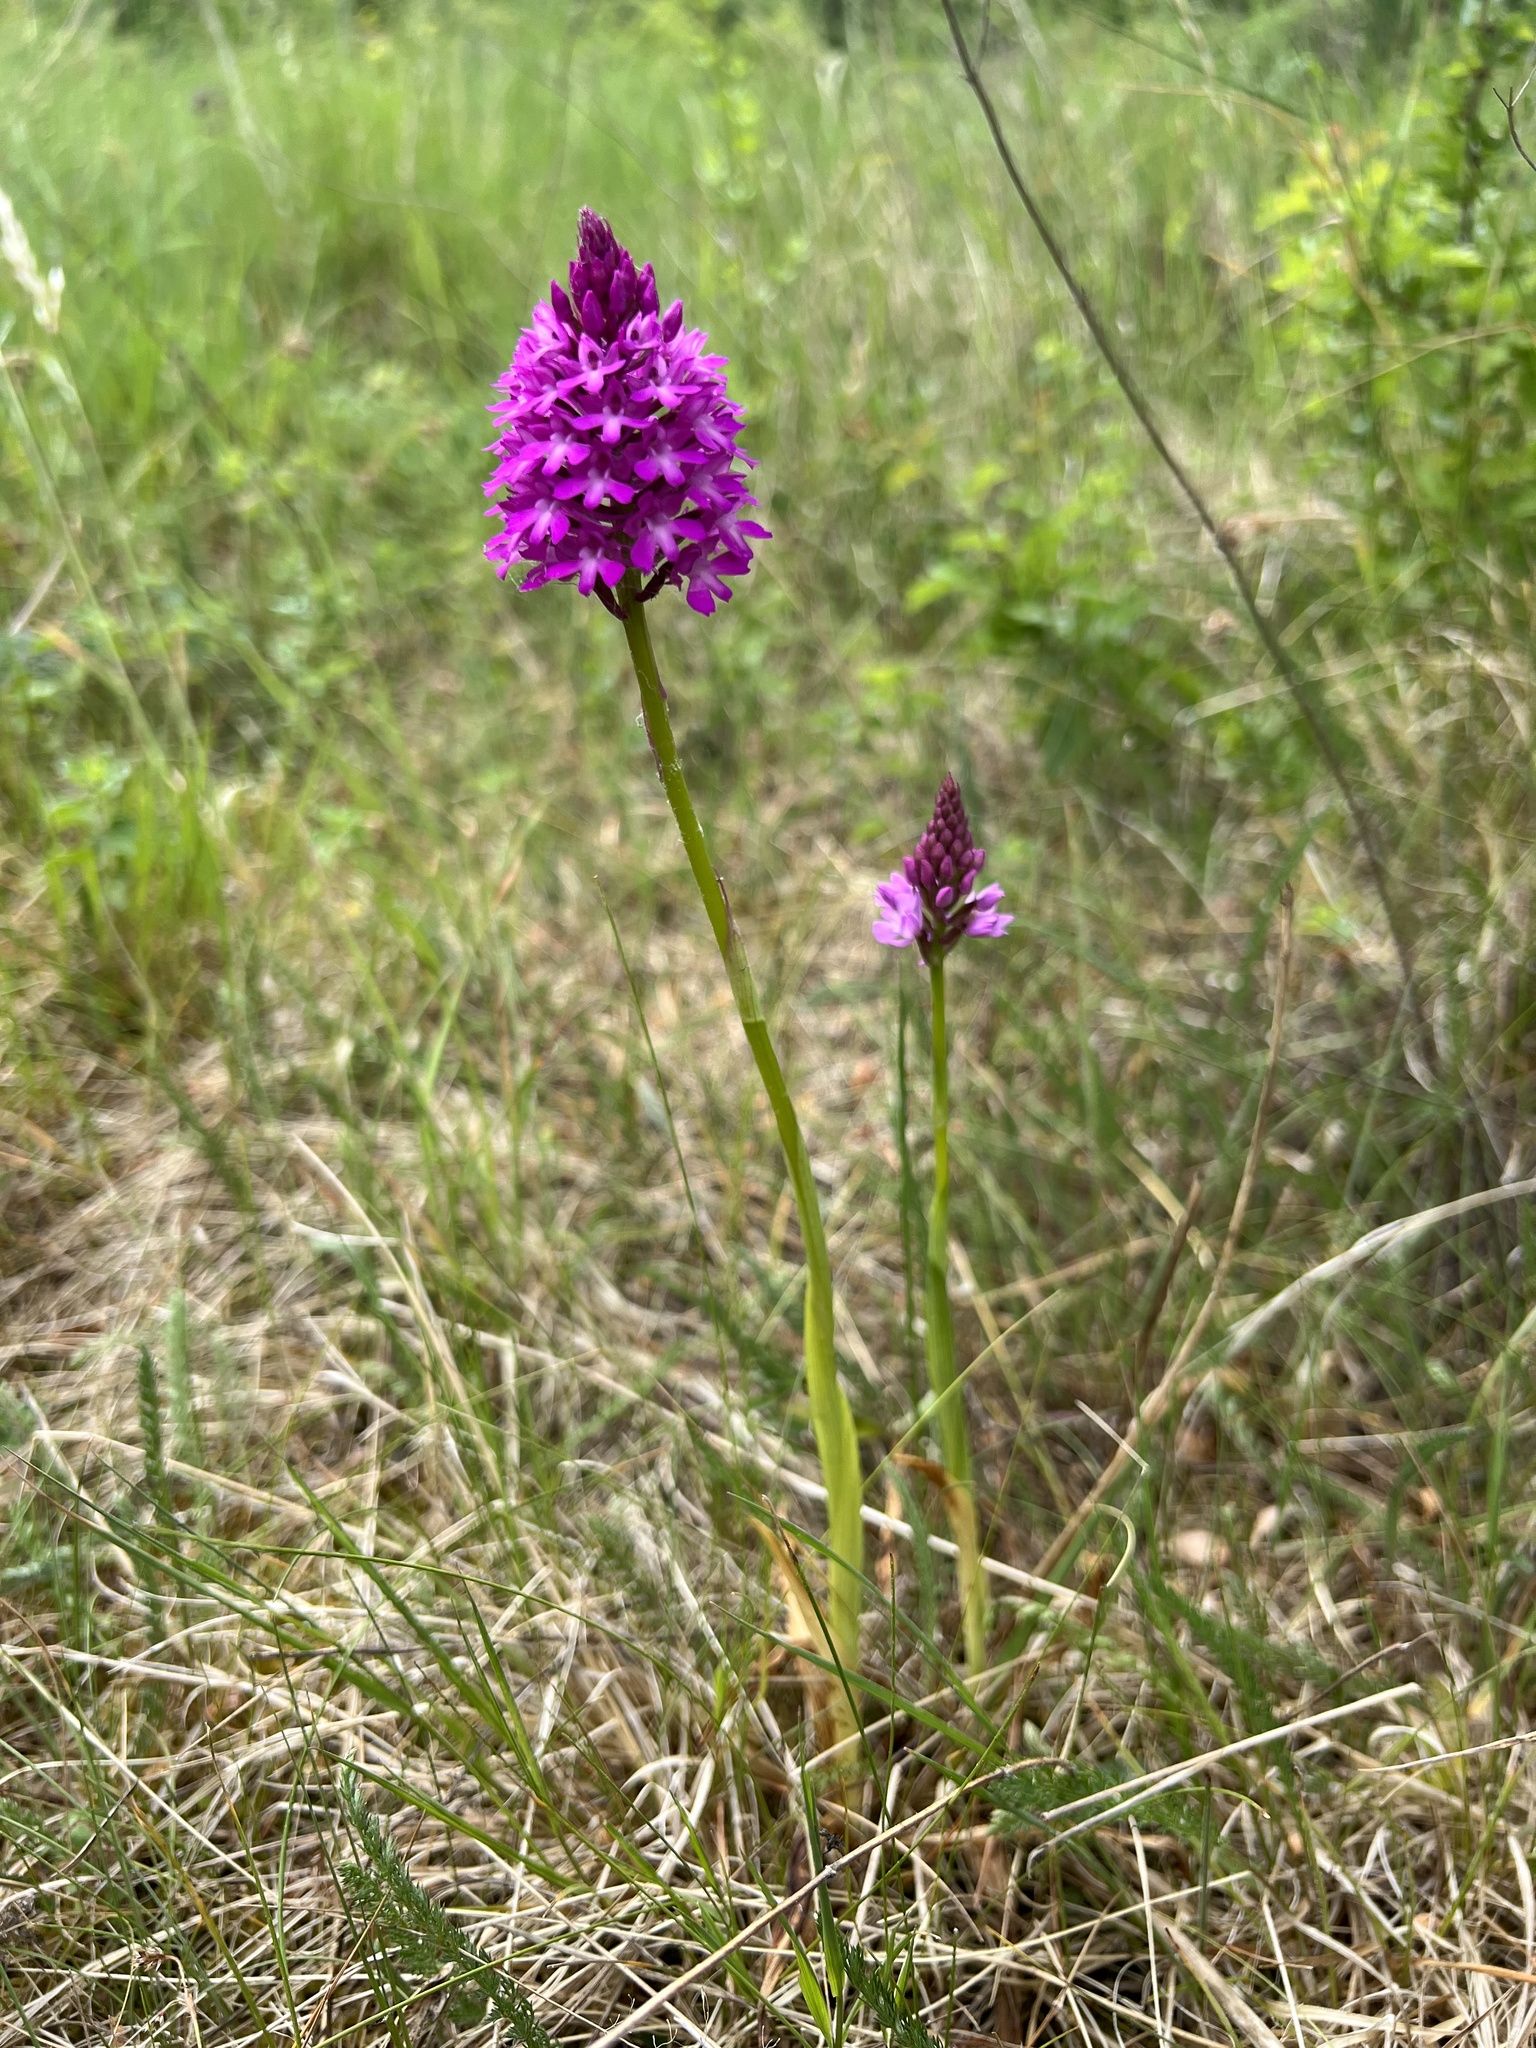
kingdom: Plantae
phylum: Tracheophyta
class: Liliopsida
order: Asparagales
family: Orchidaceae
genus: Anacamptis
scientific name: Anacamptis pyramidalis
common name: Pyramidal orchid
